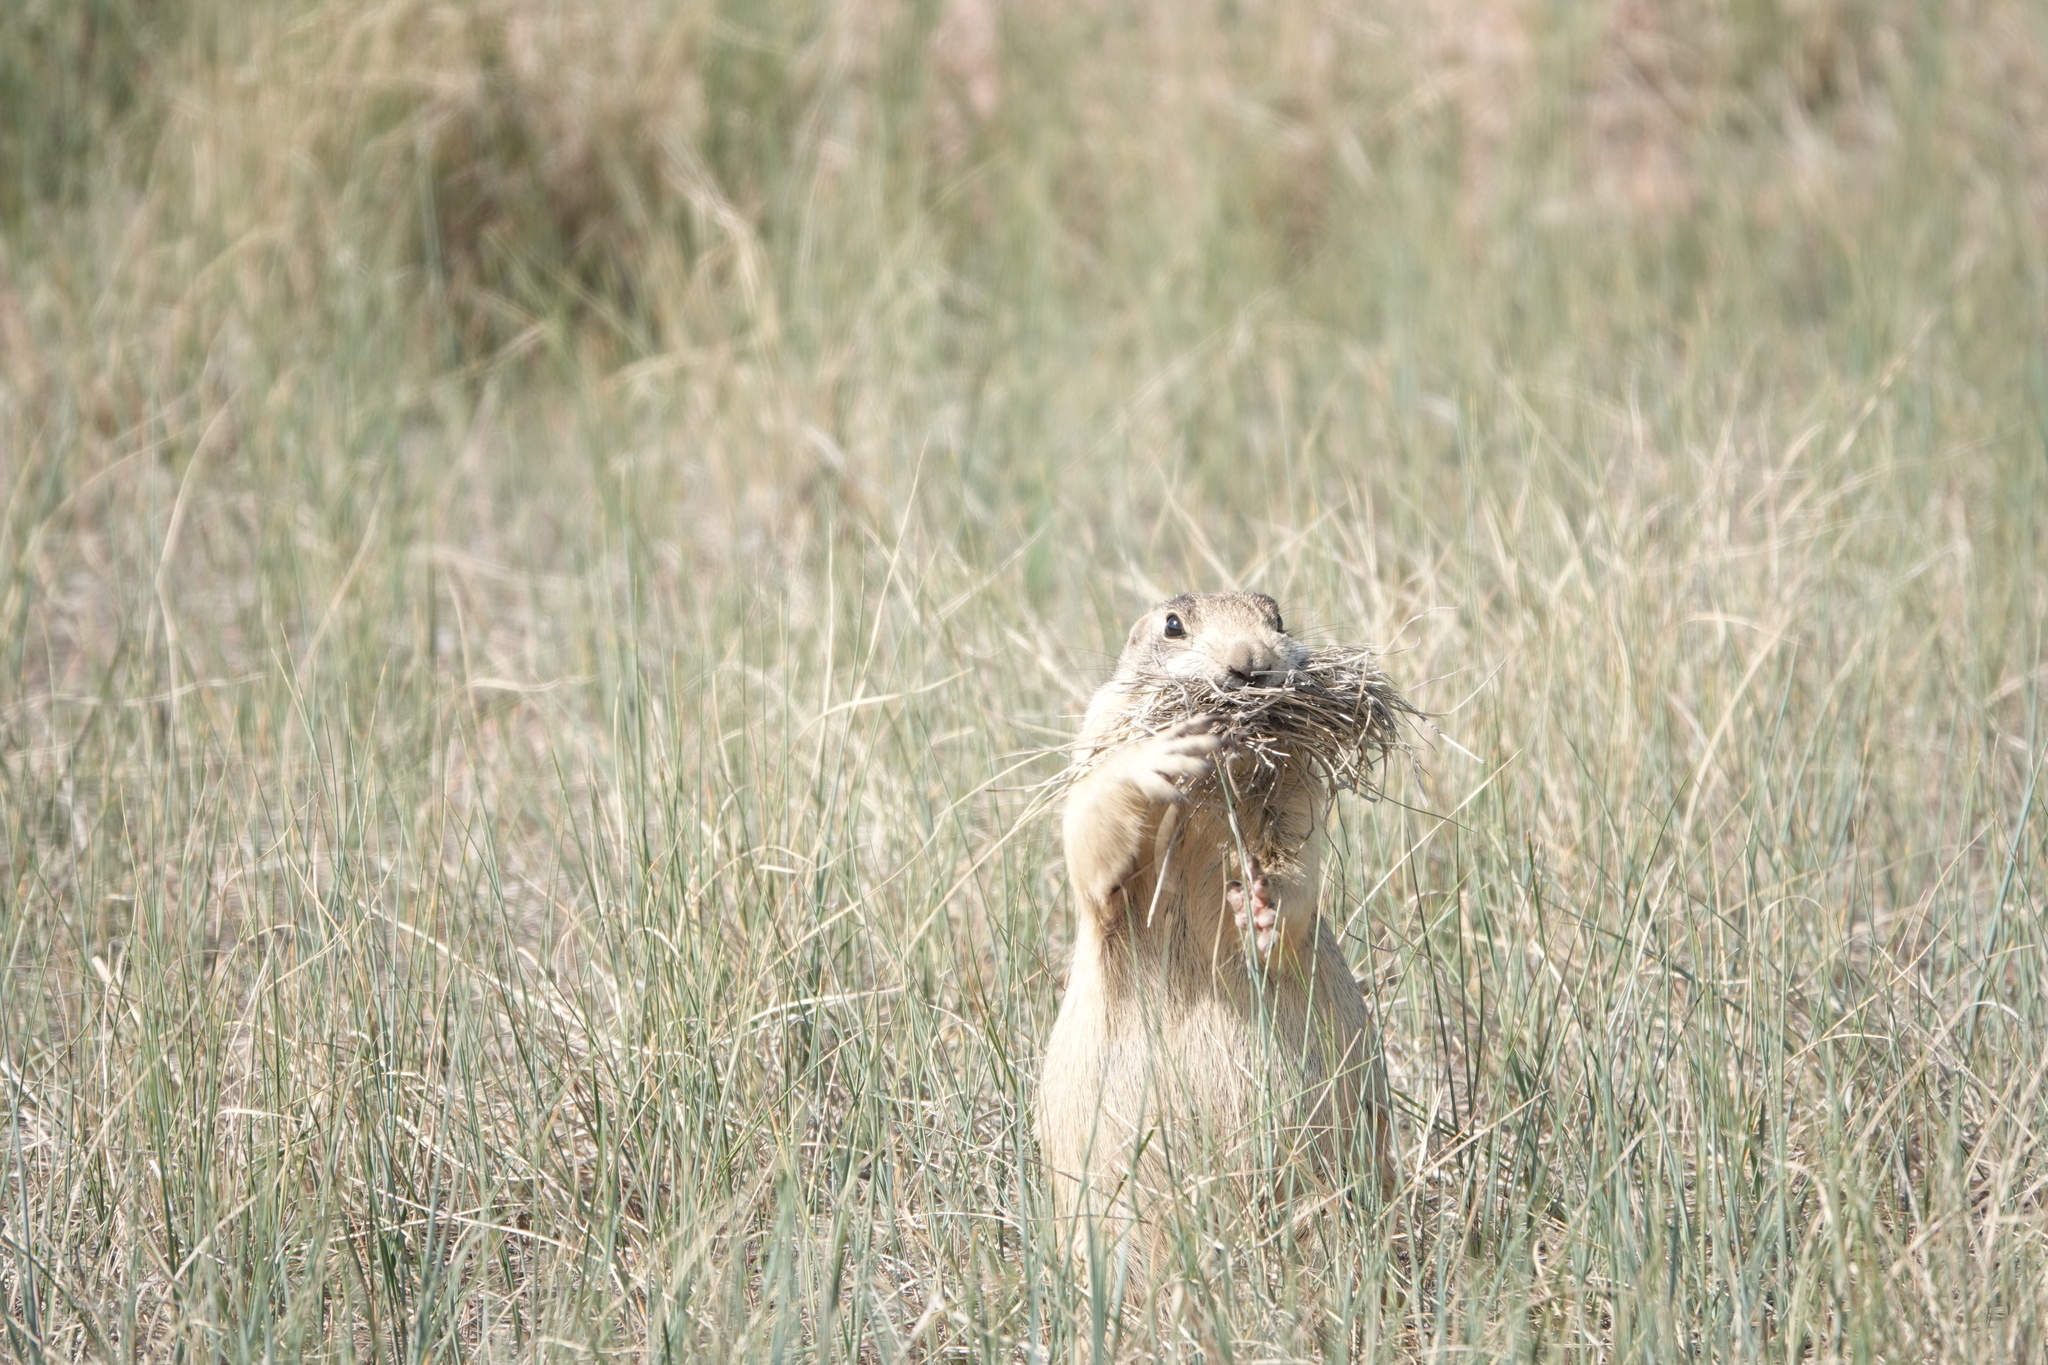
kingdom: Animalia
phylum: Chordata
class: Mammalia
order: Rodentia
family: Sciuridae
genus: Cynomys
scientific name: Cynomys leucurus
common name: White-tailed prairie dog
